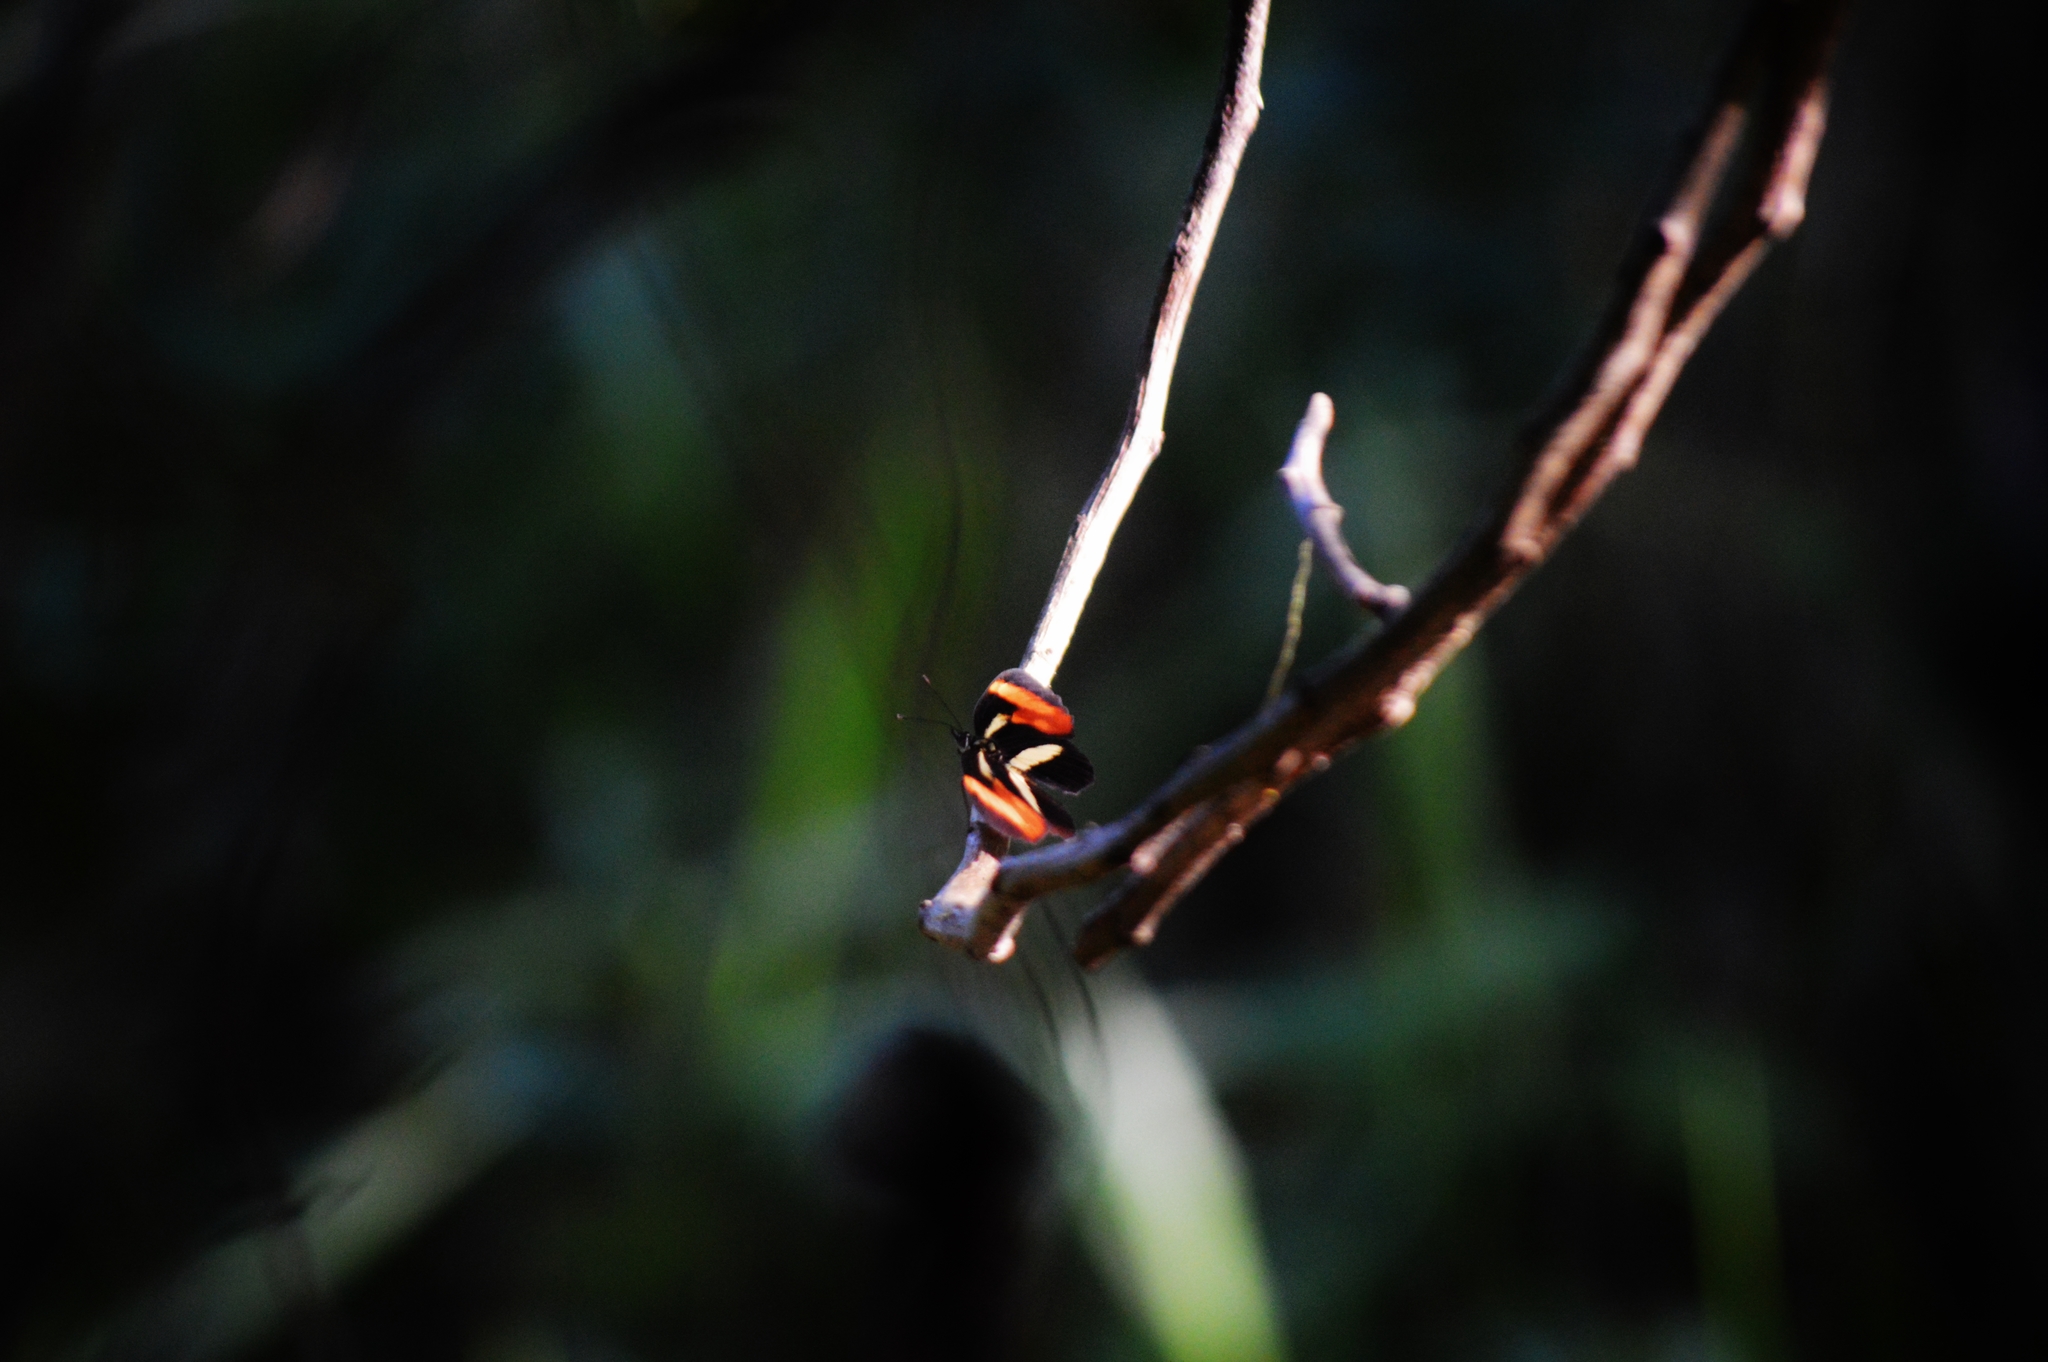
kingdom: Animalia
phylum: Arthropoda
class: Insecta
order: Lepidoptera
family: Nymphalidae
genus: Eresia
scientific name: Eresia lansdorfi
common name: Lansdorf's crescent
